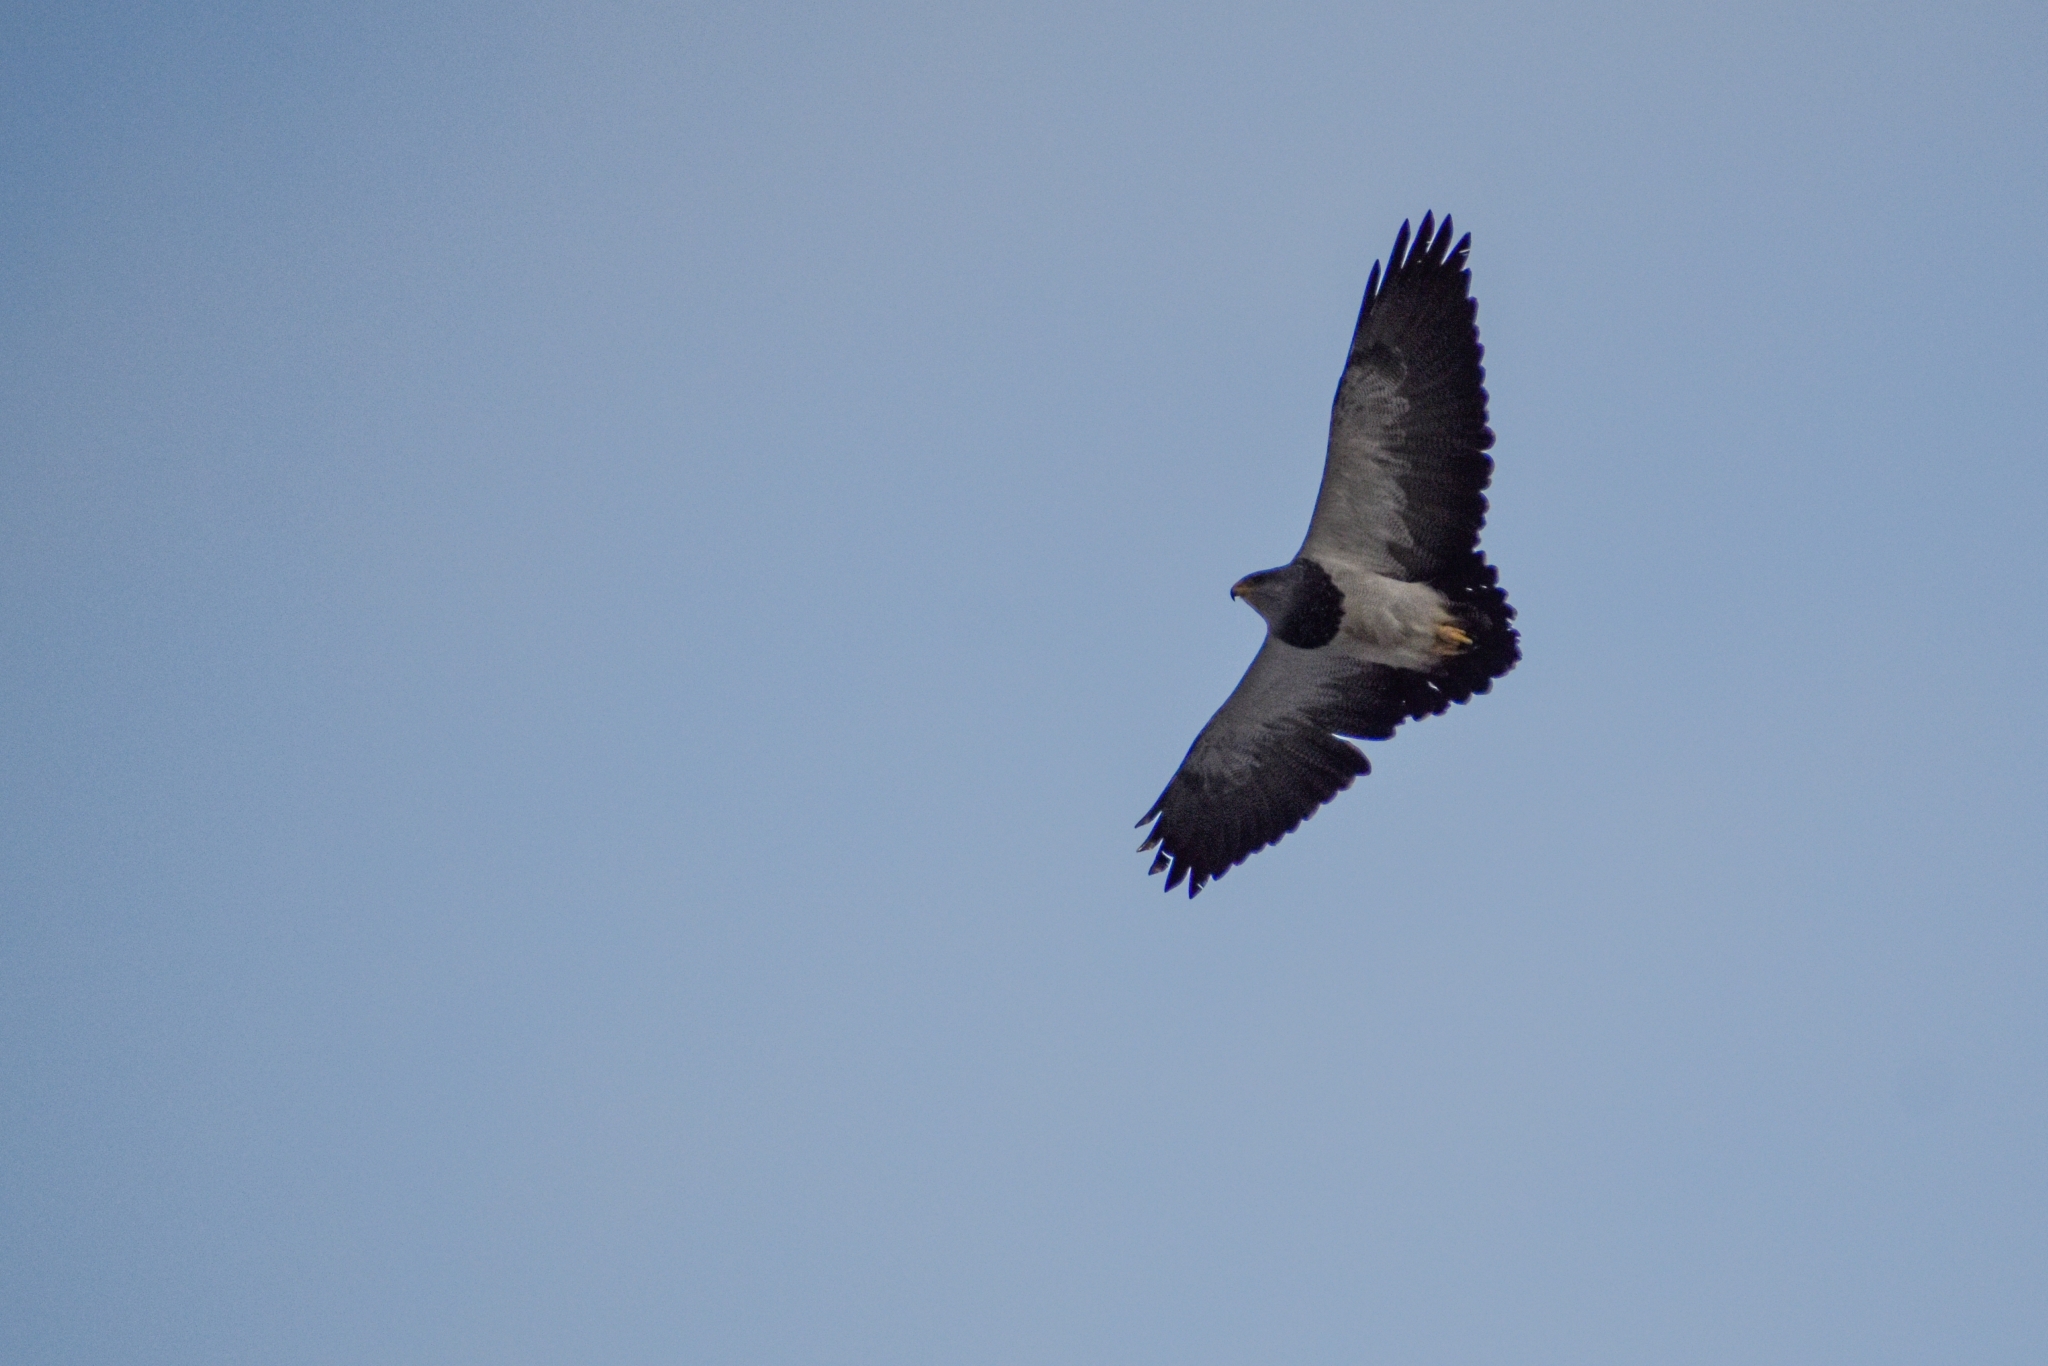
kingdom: Animalia
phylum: Chordata
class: Aves
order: Accipitriformes
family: Accipitridae
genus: Geranoaetus
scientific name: Geranoaetus melanoleucus
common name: Black-chested buzzard-eagle
